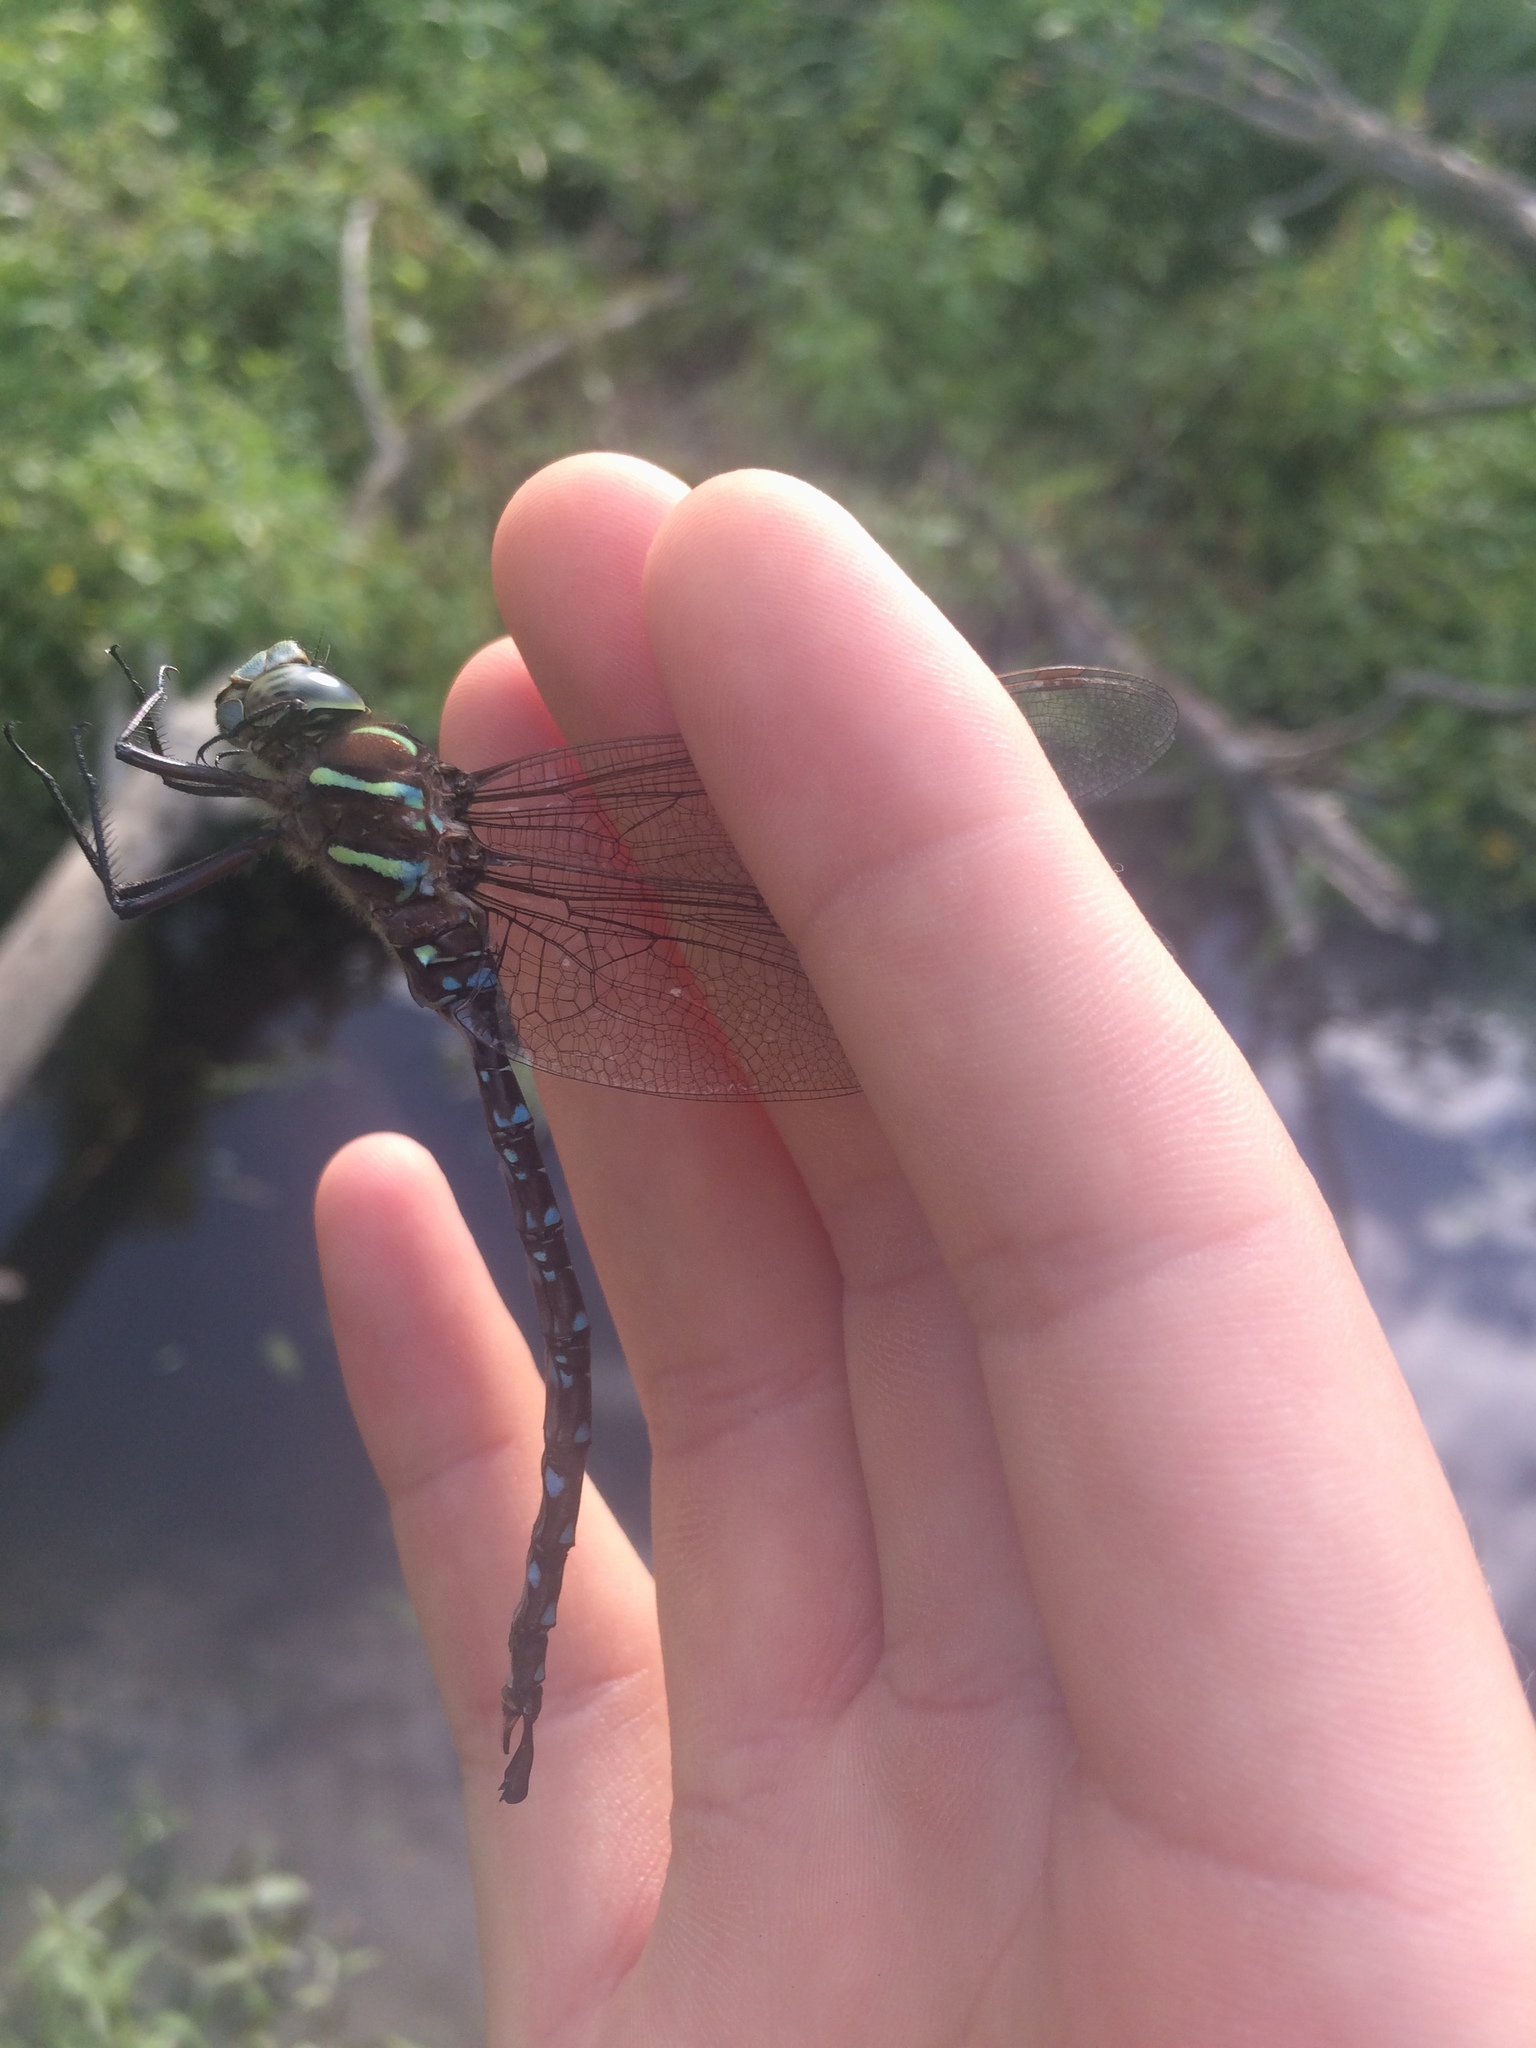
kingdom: Animalia
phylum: Arthropoda
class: Insecta
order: Odonata
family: Aeshnidae
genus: Aeshna
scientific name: Aeshna umbrosa
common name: Shadow darner
